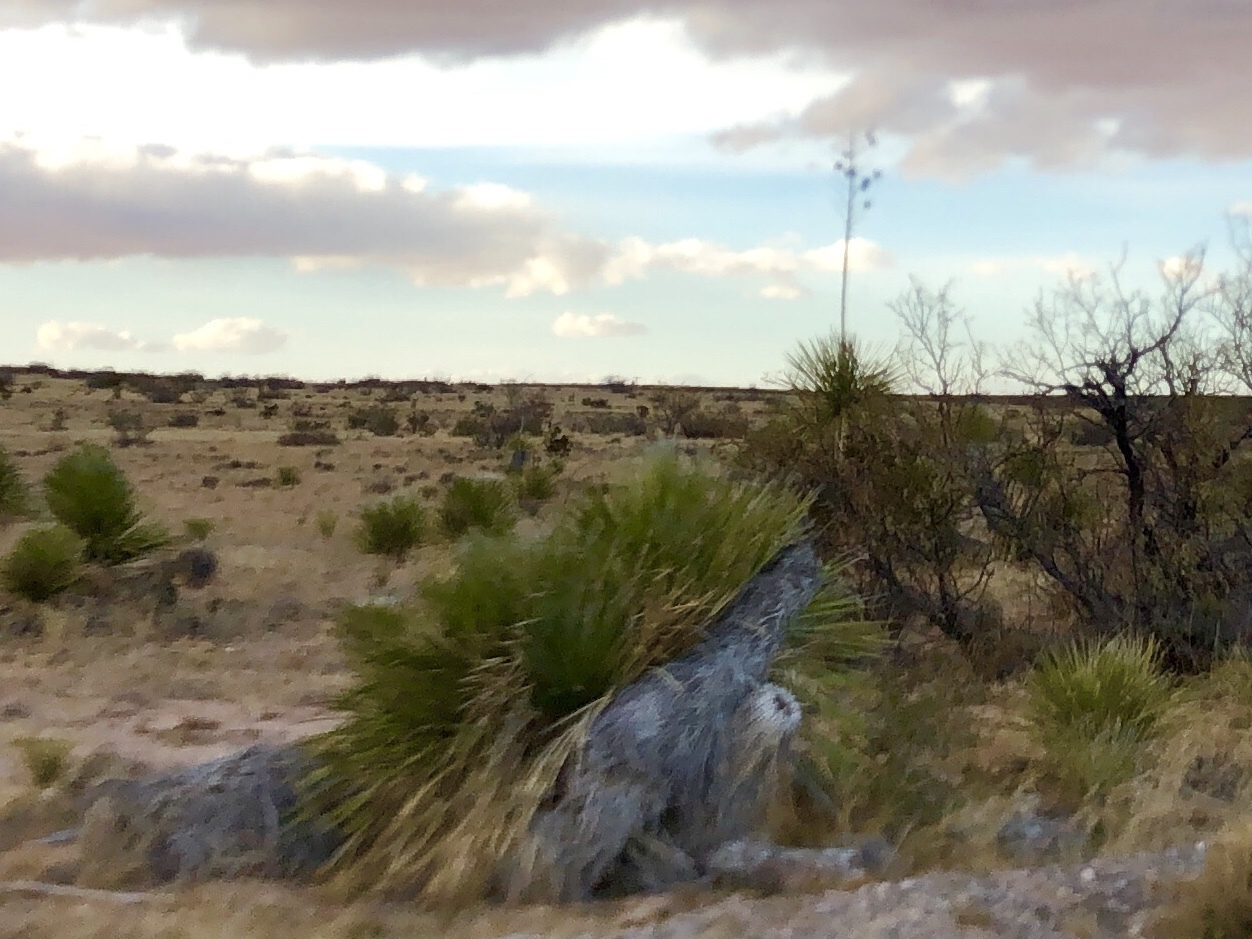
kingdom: Plantae
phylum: Tracheophyta
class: Liliopsida
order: Asparagales
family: Asparagaceae
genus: Yucca
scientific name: Yucca elata
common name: Palmella
